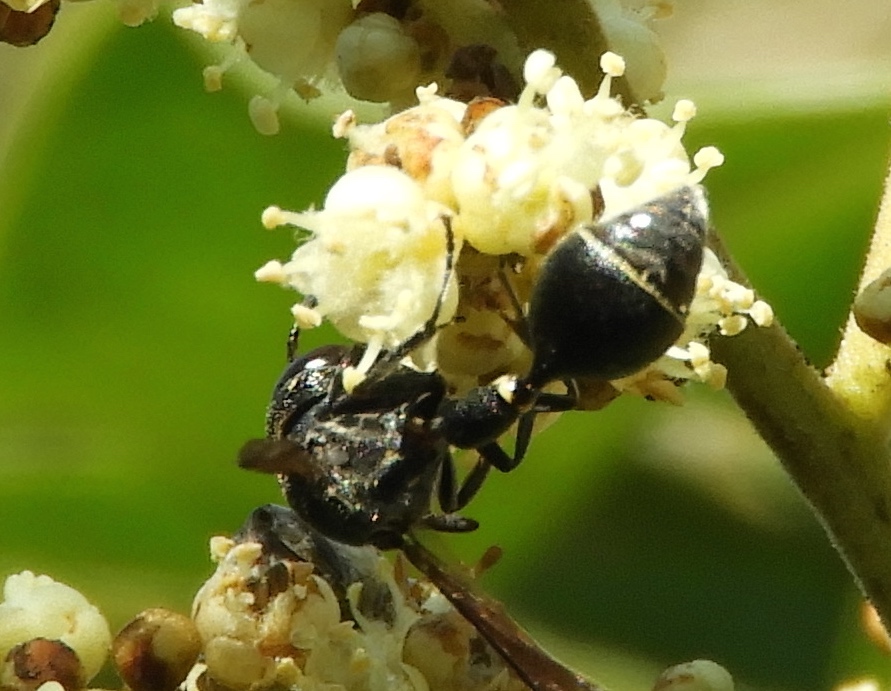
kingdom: Animalia
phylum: Arthropoda
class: Insecta
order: Hymenoptera
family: Eumenidae
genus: Zethus
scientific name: Zethus nigricornis
